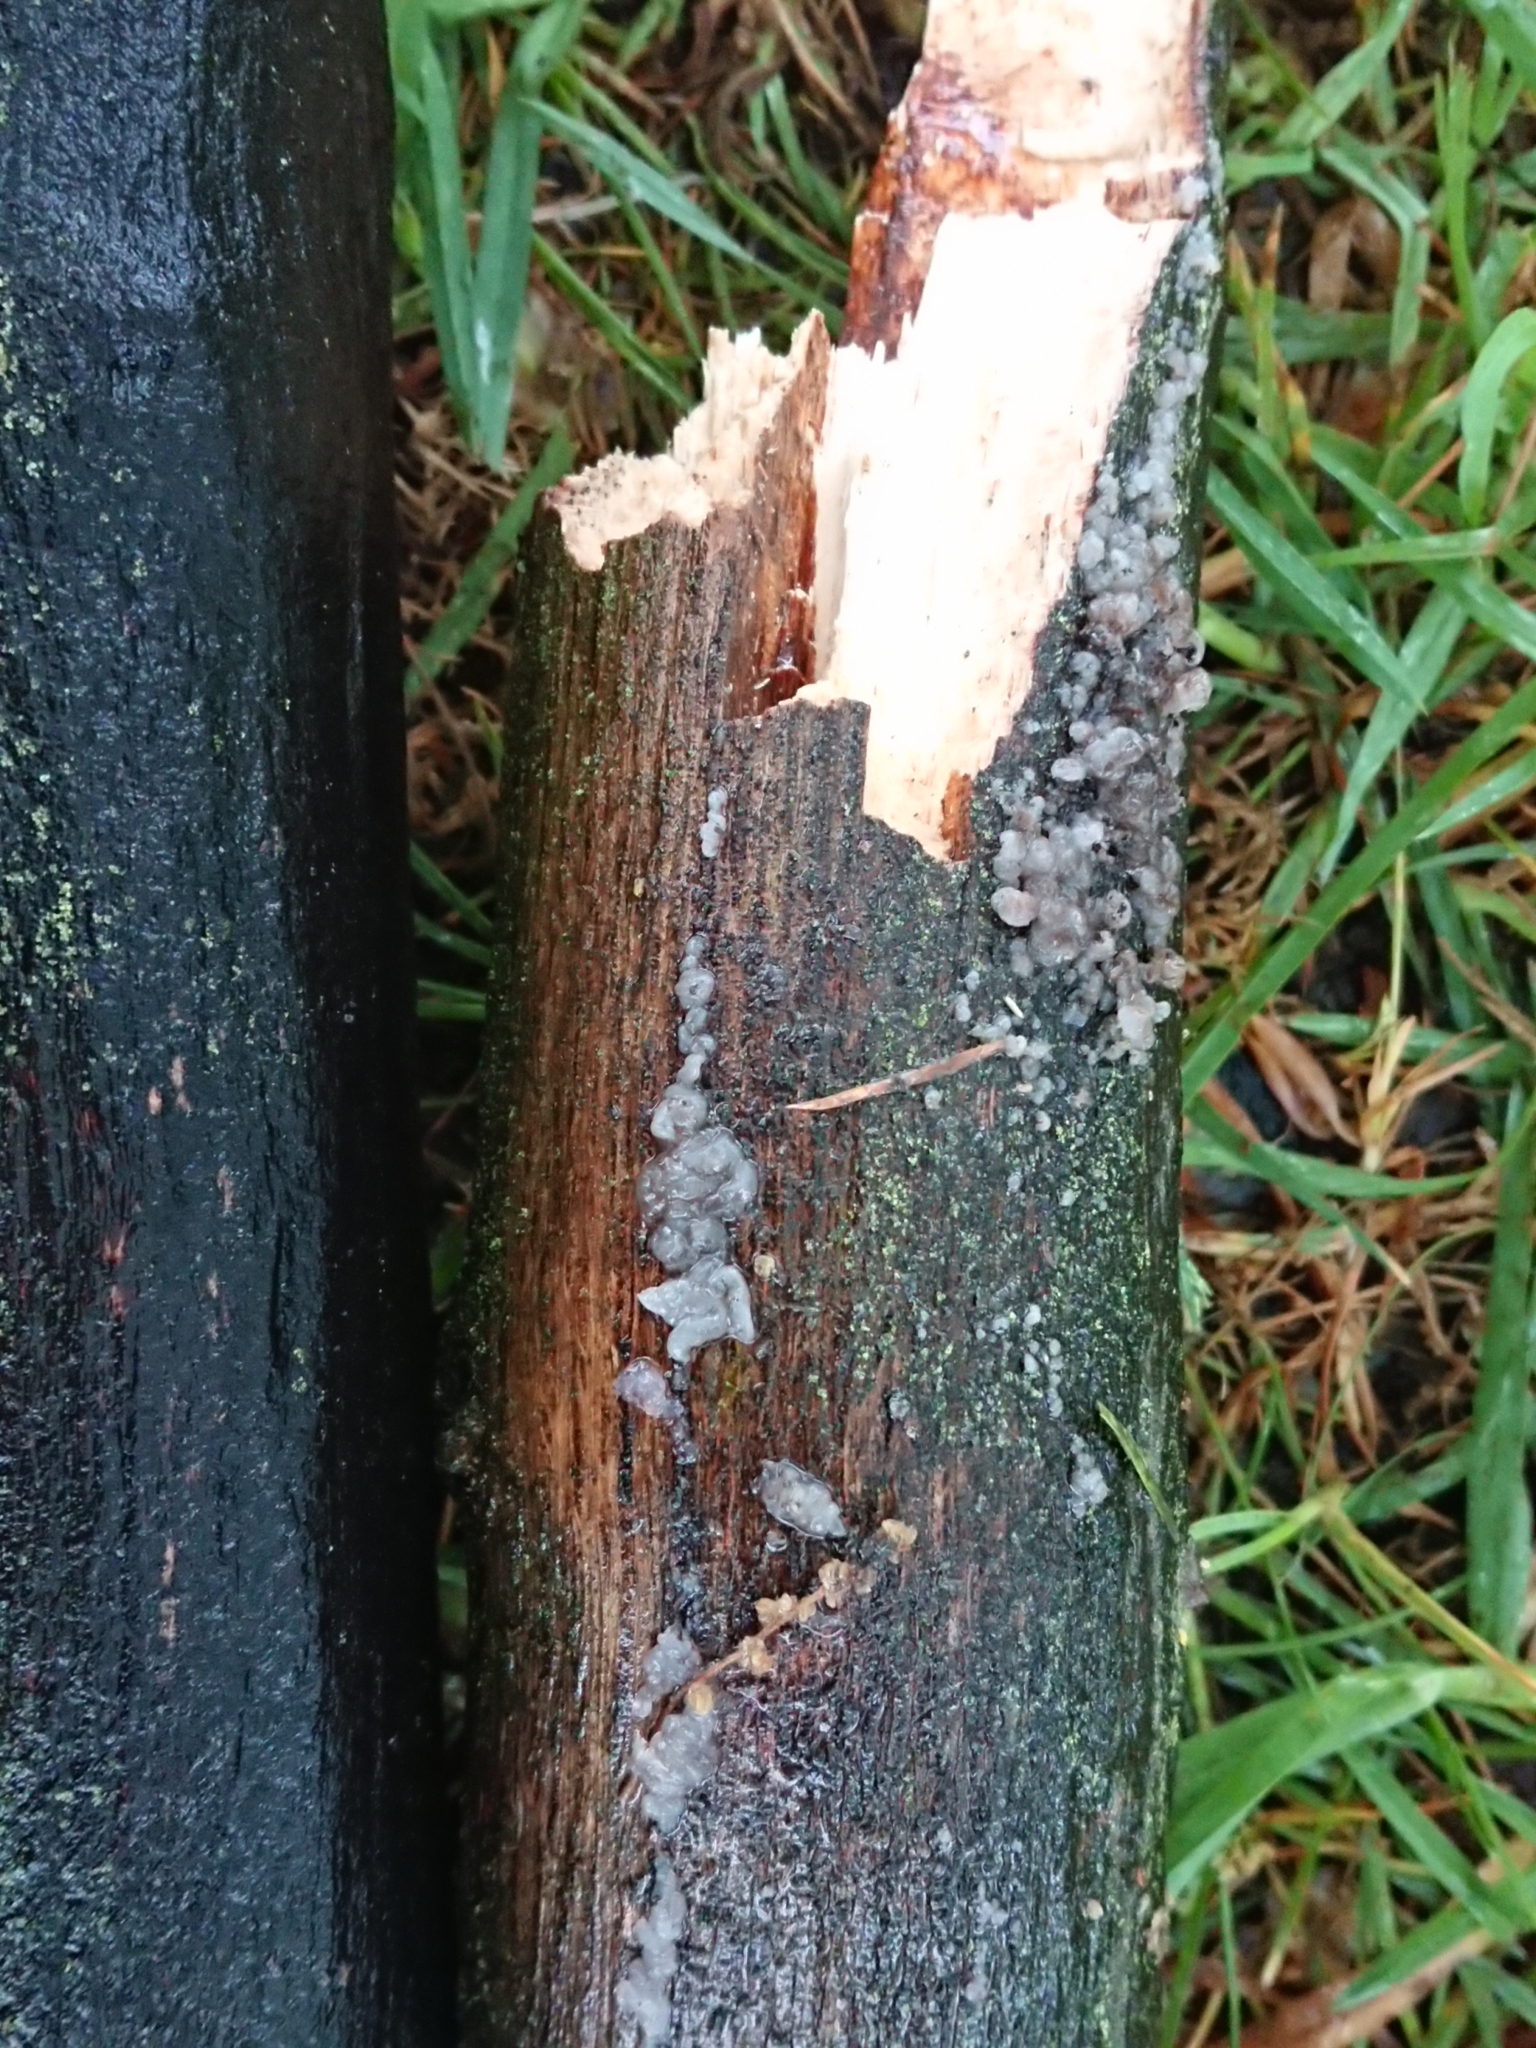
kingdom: Fungi
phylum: Basidiomycota
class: Agaricomycetes
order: Auriculariales
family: Auriculariaceae
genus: Tremellochaete
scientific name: Tremellochaete
